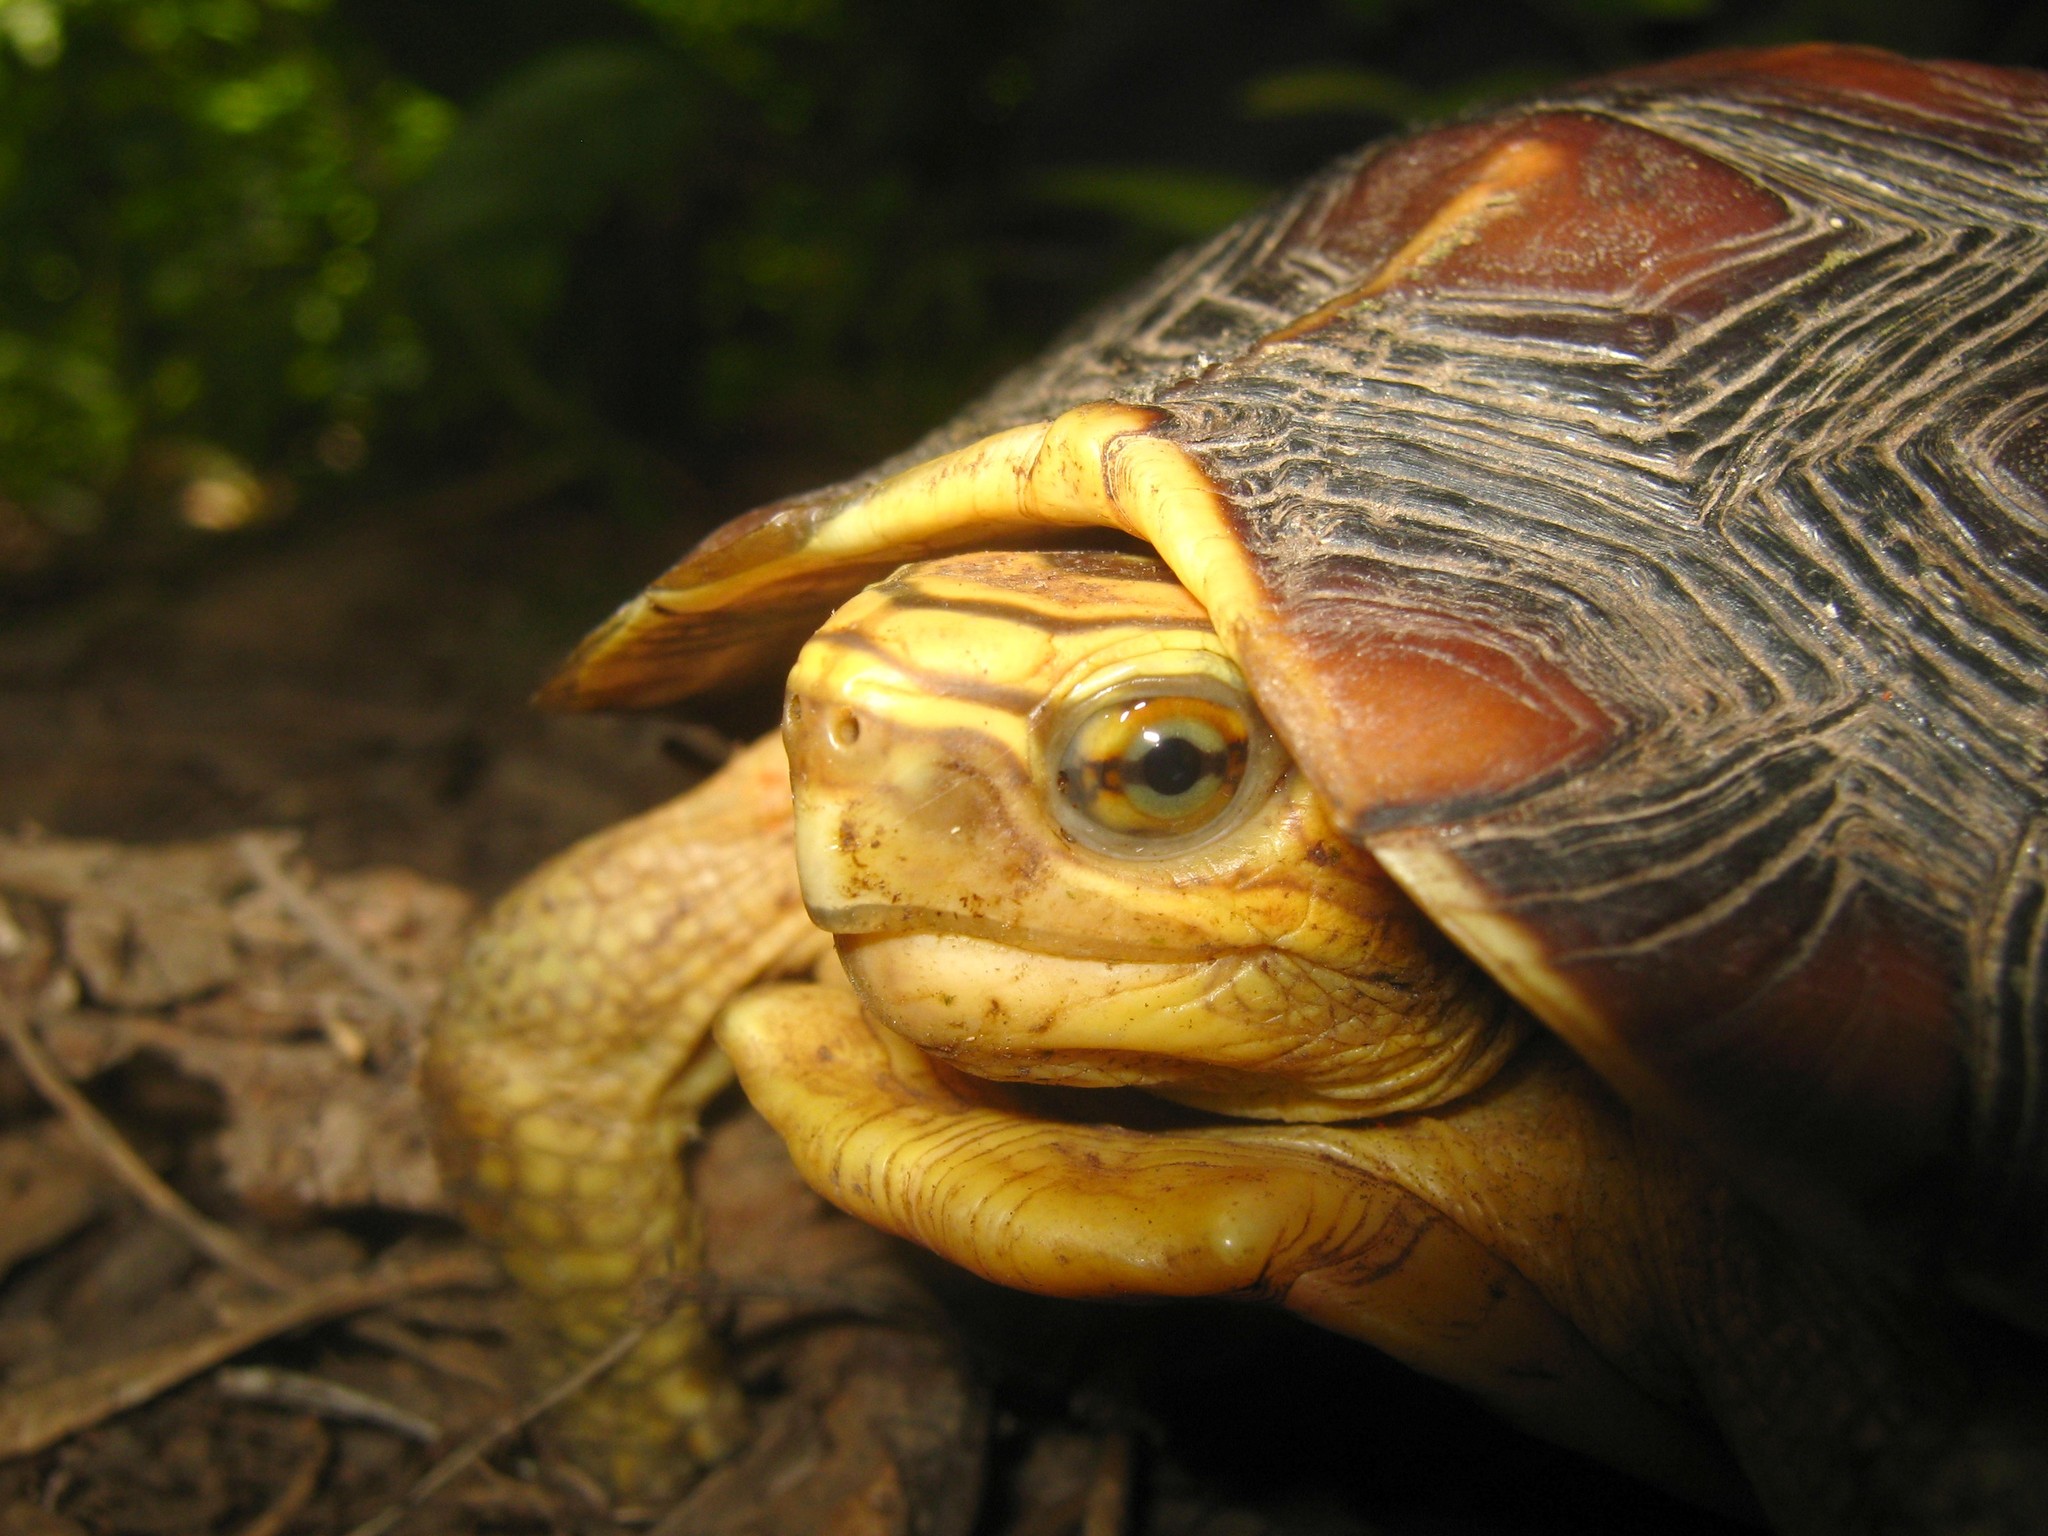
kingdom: Animalia
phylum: Chordata
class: Testudines
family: Geoemydidae
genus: Rhinoclemmys
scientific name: Rhinoclemmys rubida
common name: Mexican spotted wood turtle
